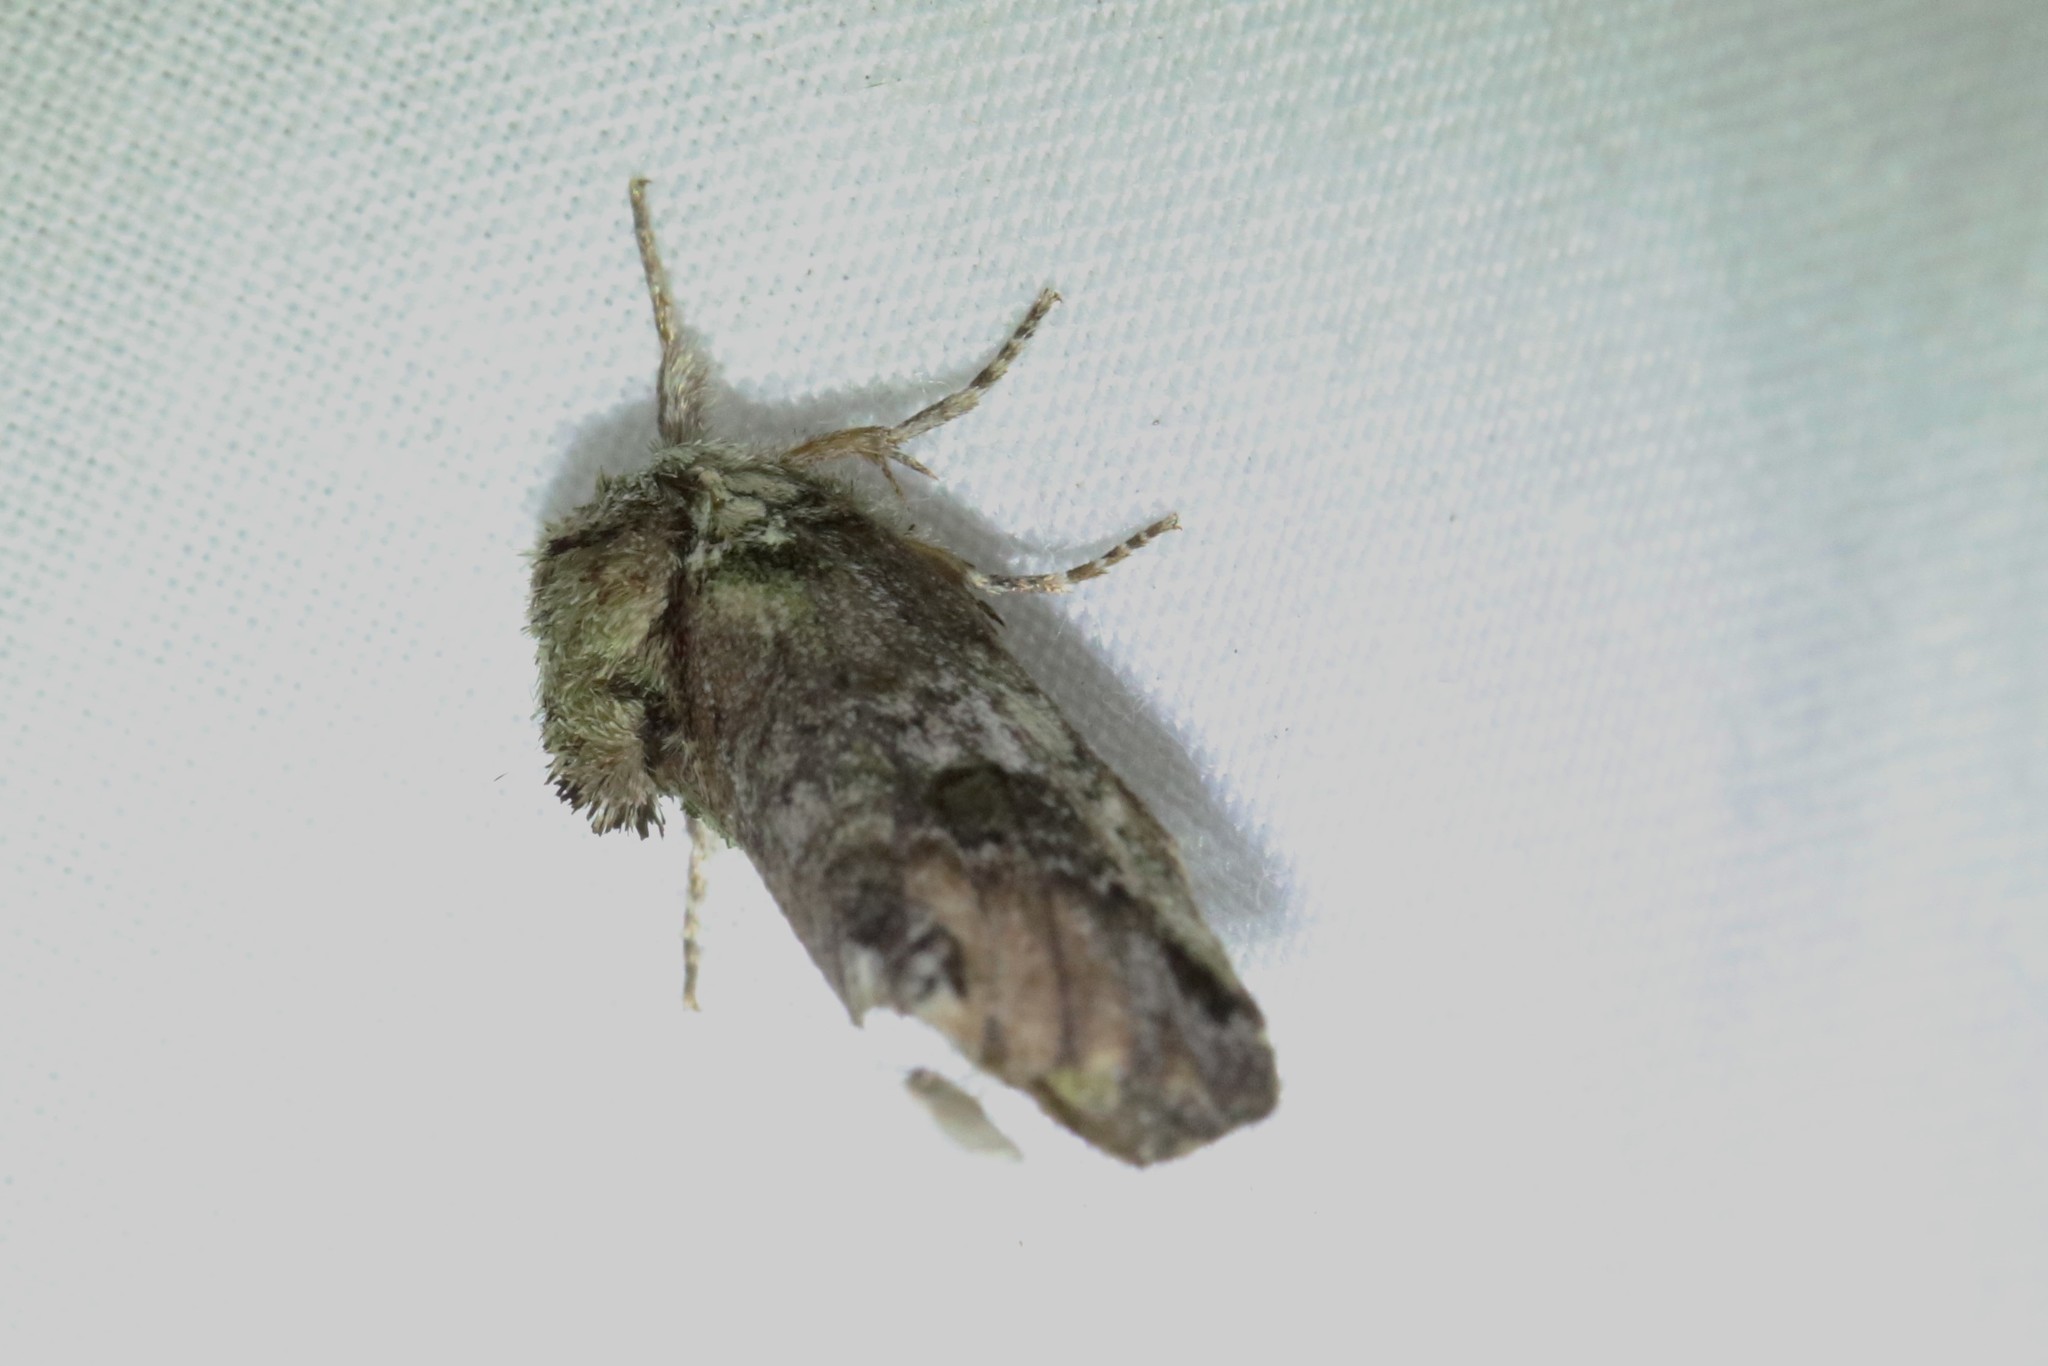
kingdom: Animalia
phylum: Arthropoda
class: Insecta
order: Lepidoptera
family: Notodontidae
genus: Schizura
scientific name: Schizura
